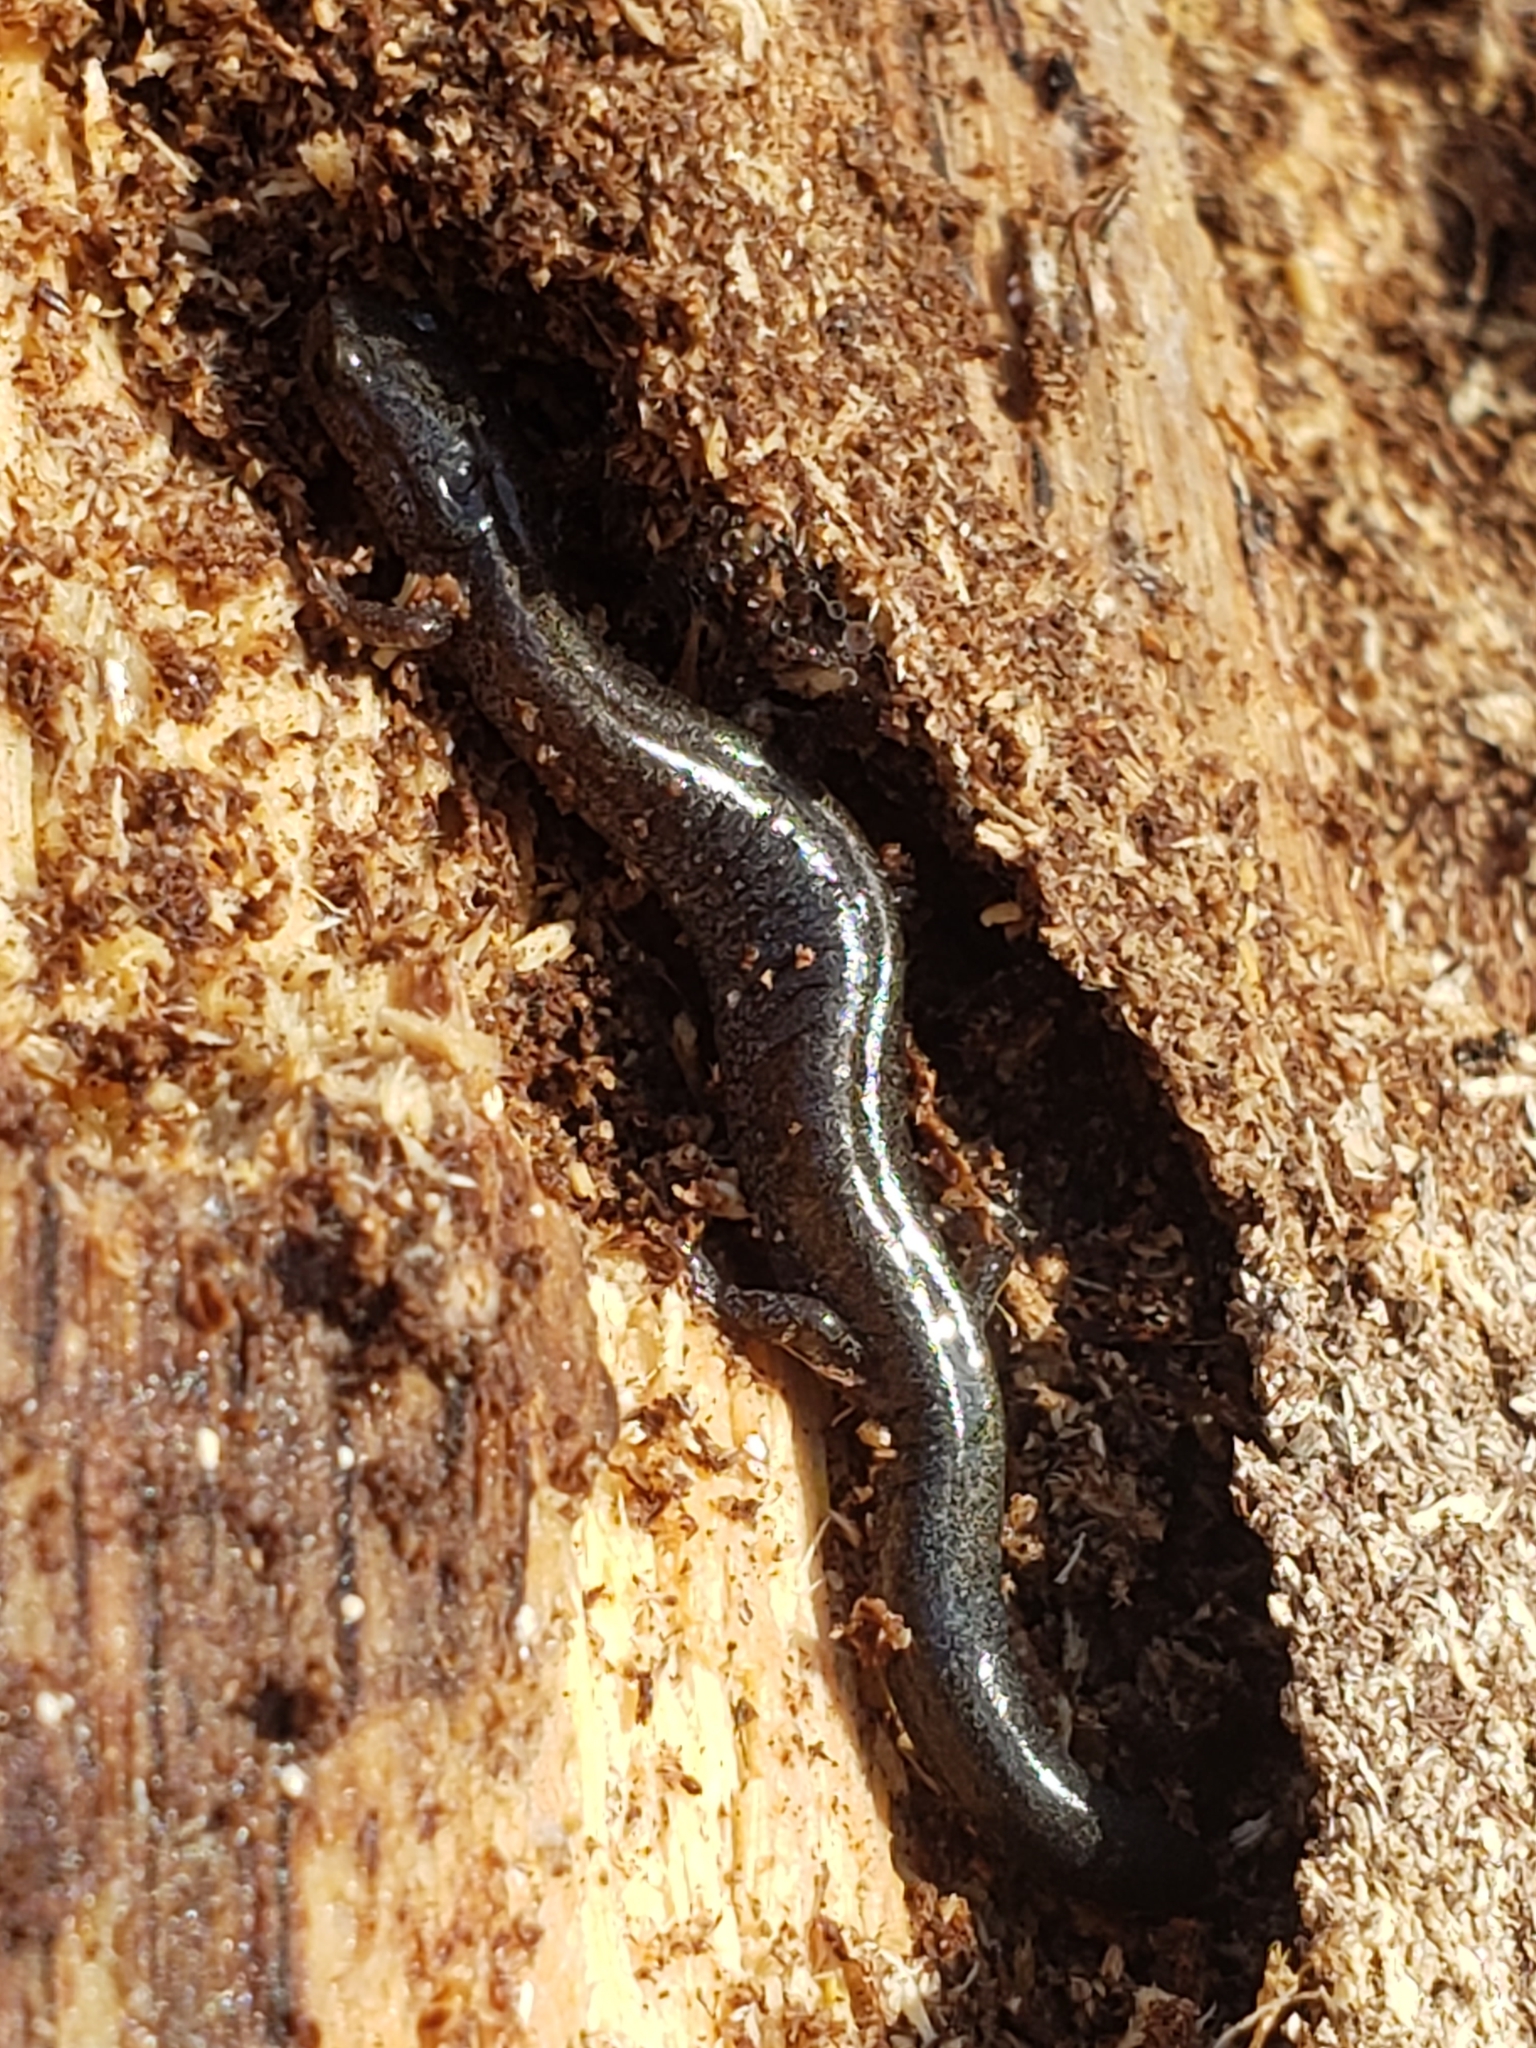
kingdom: Animalia
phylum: Chordata
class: Amphibia
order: Caudata
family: Plethodontidae
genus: Plethodon
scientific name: Plethodon cinereus
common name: Redback salamander
